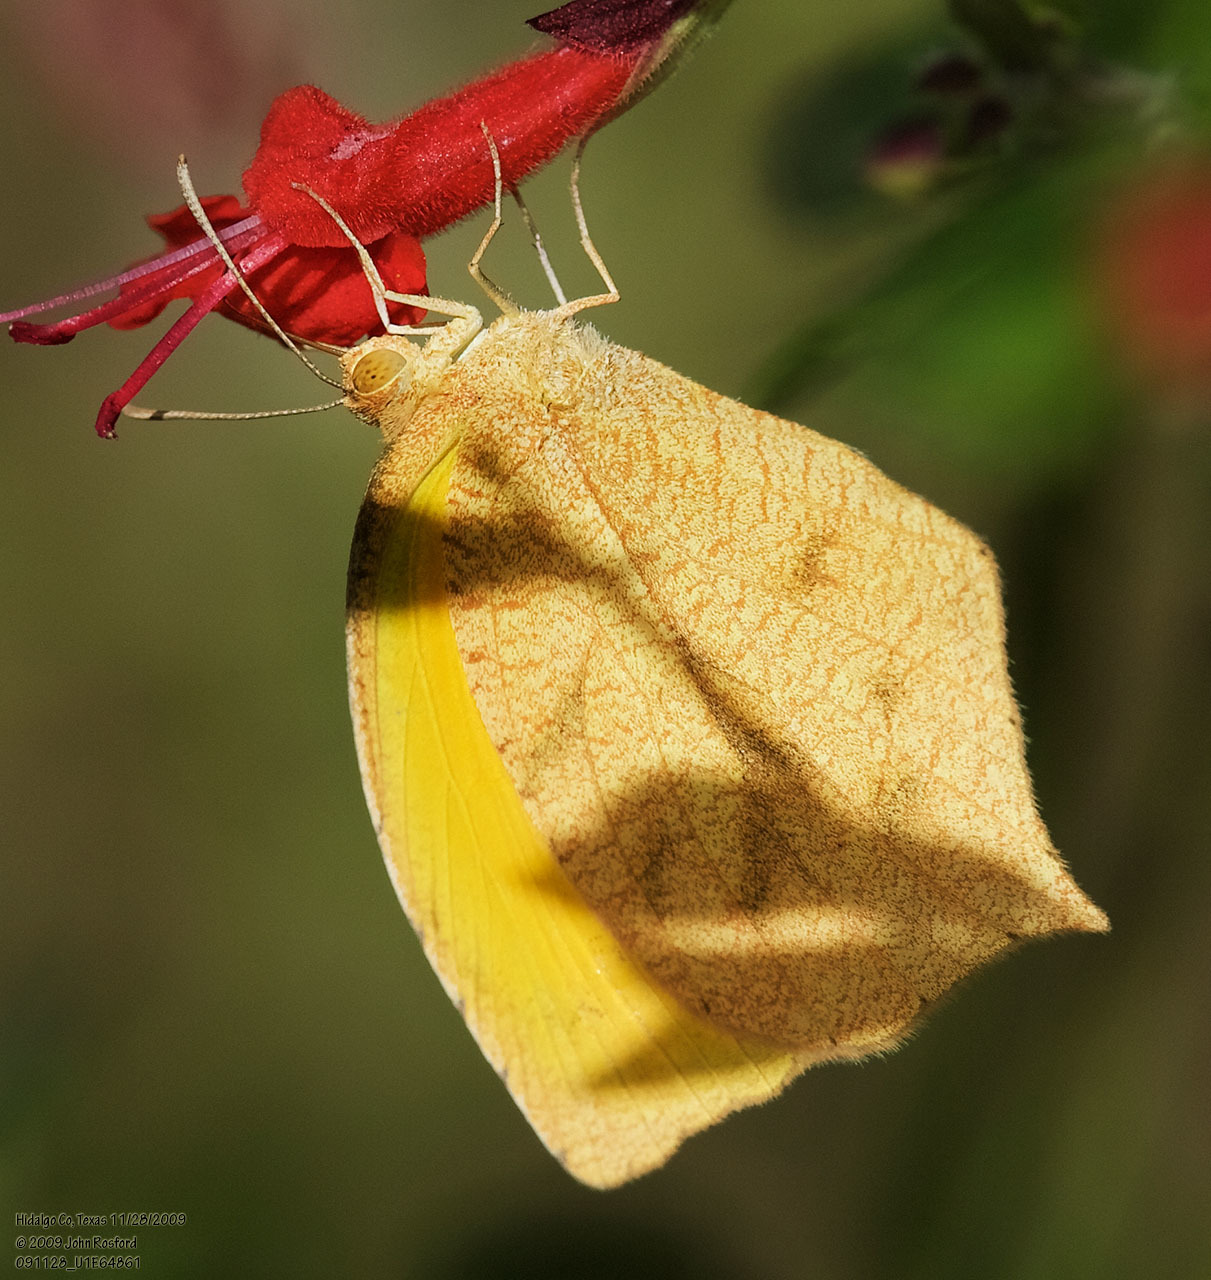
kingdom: Animalia
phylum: Arthropoda
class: Insecta
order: Lepidoptera
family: Pieridae
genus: Pyrisitia
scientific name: Pyrisitia proterpia
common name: Tailed orange
